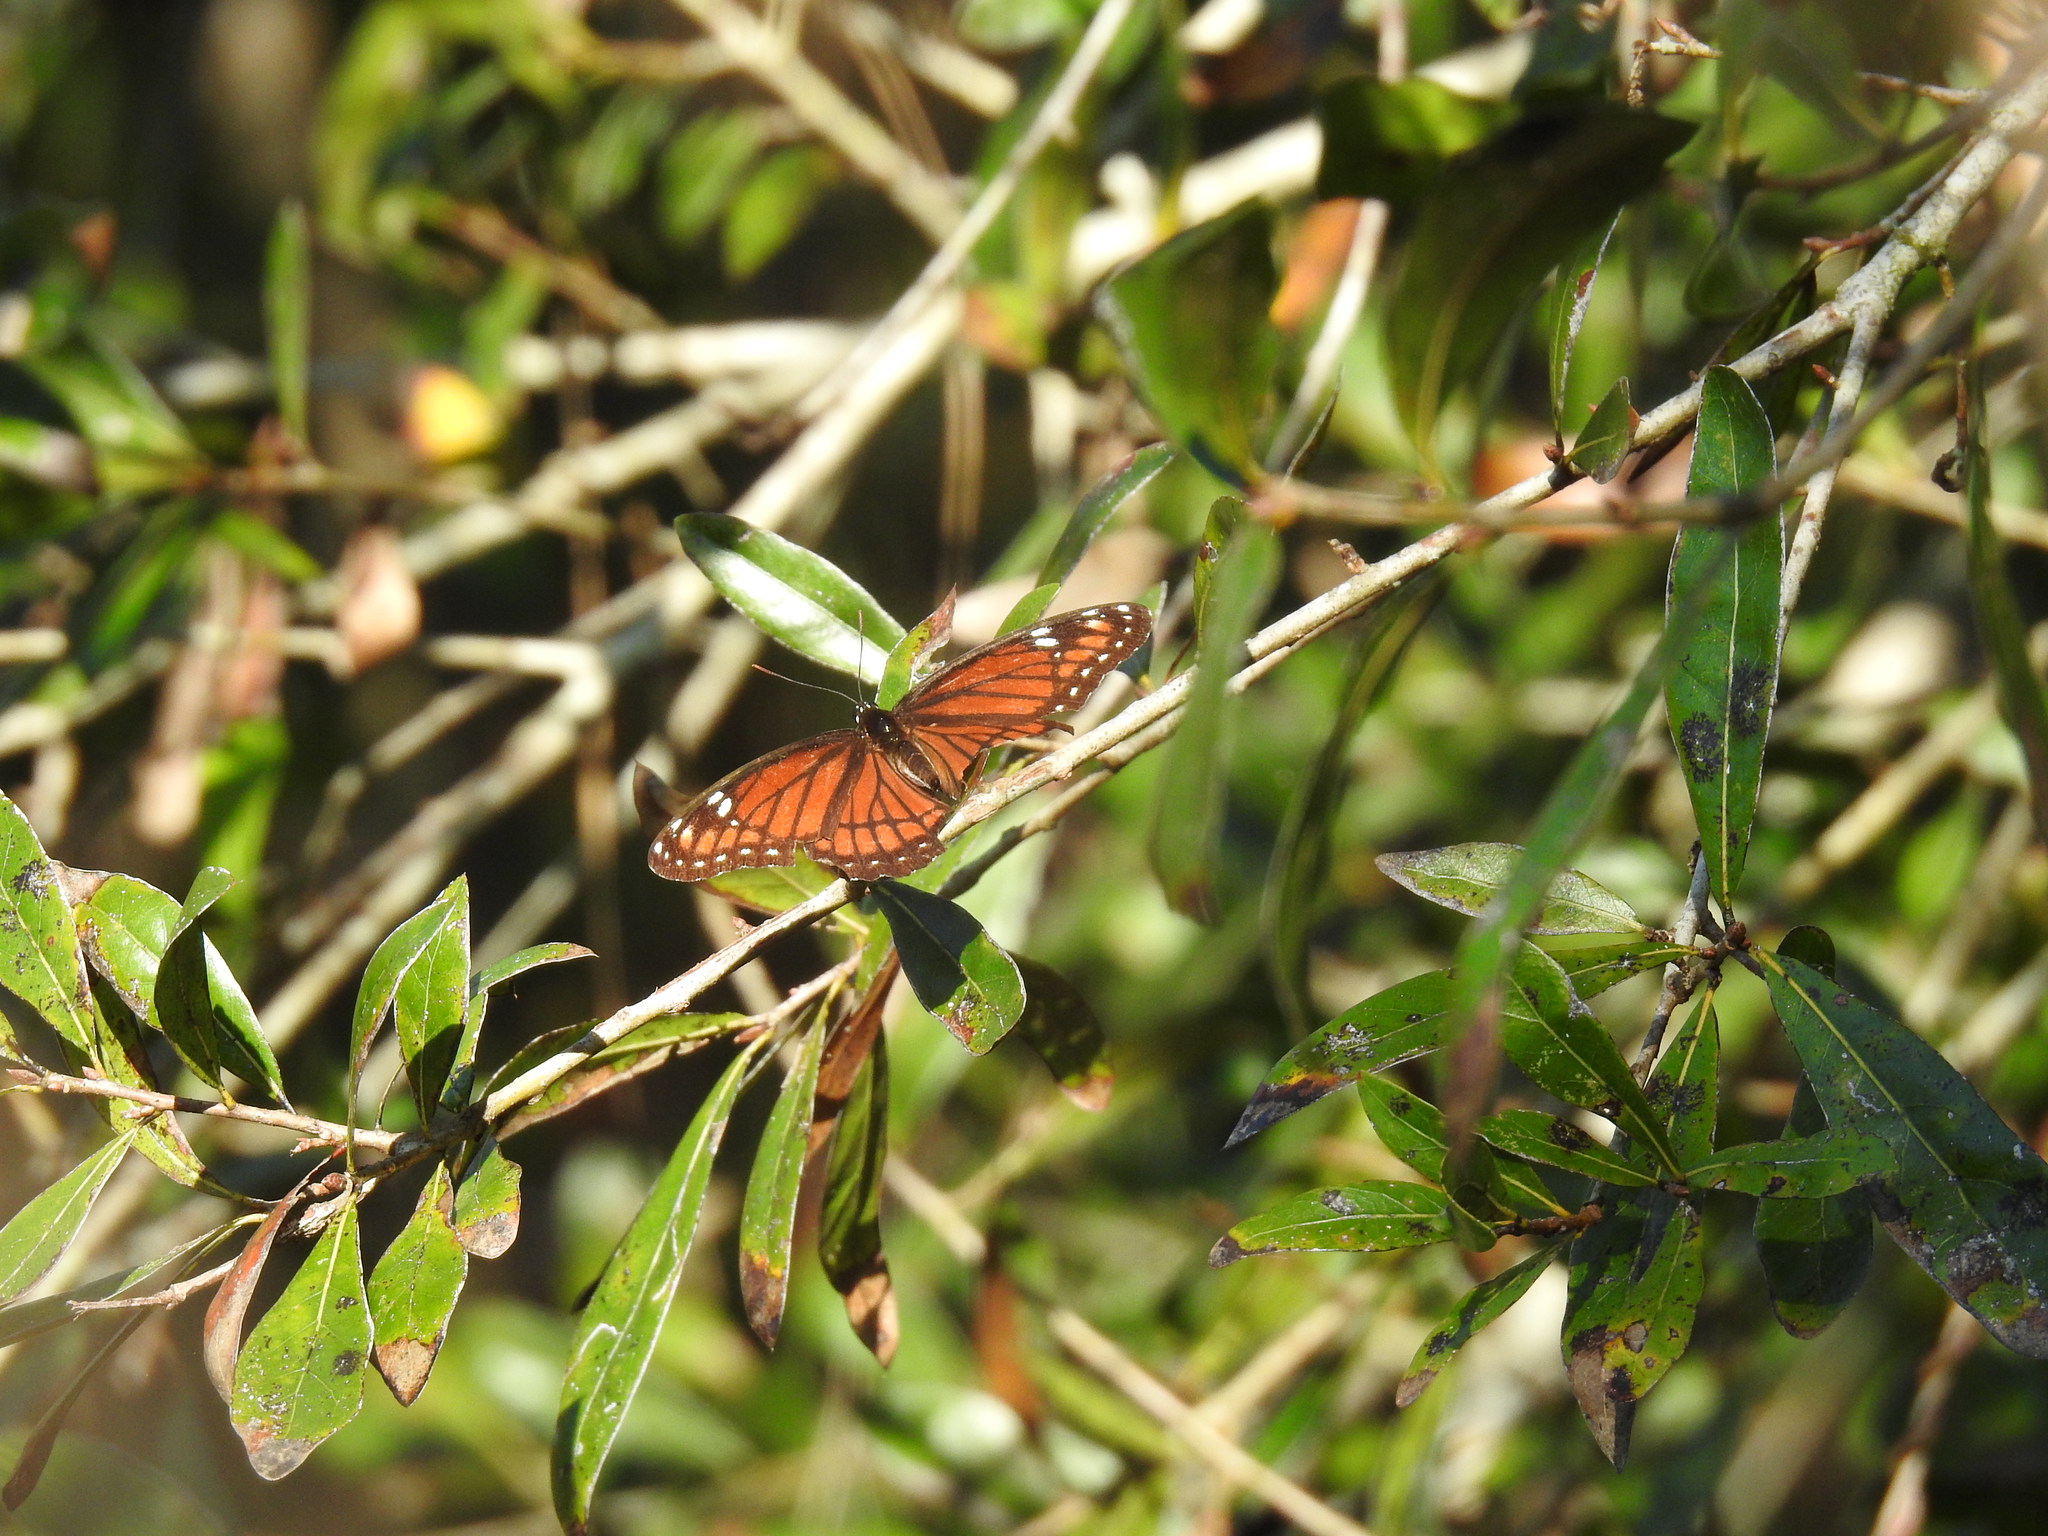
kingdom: Animalia
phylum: Arthropoda
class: Insecta
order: Lepidoptera
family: Nymphalidae
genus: Limenitis
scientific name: Limenitis archippus
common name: Viceroy
